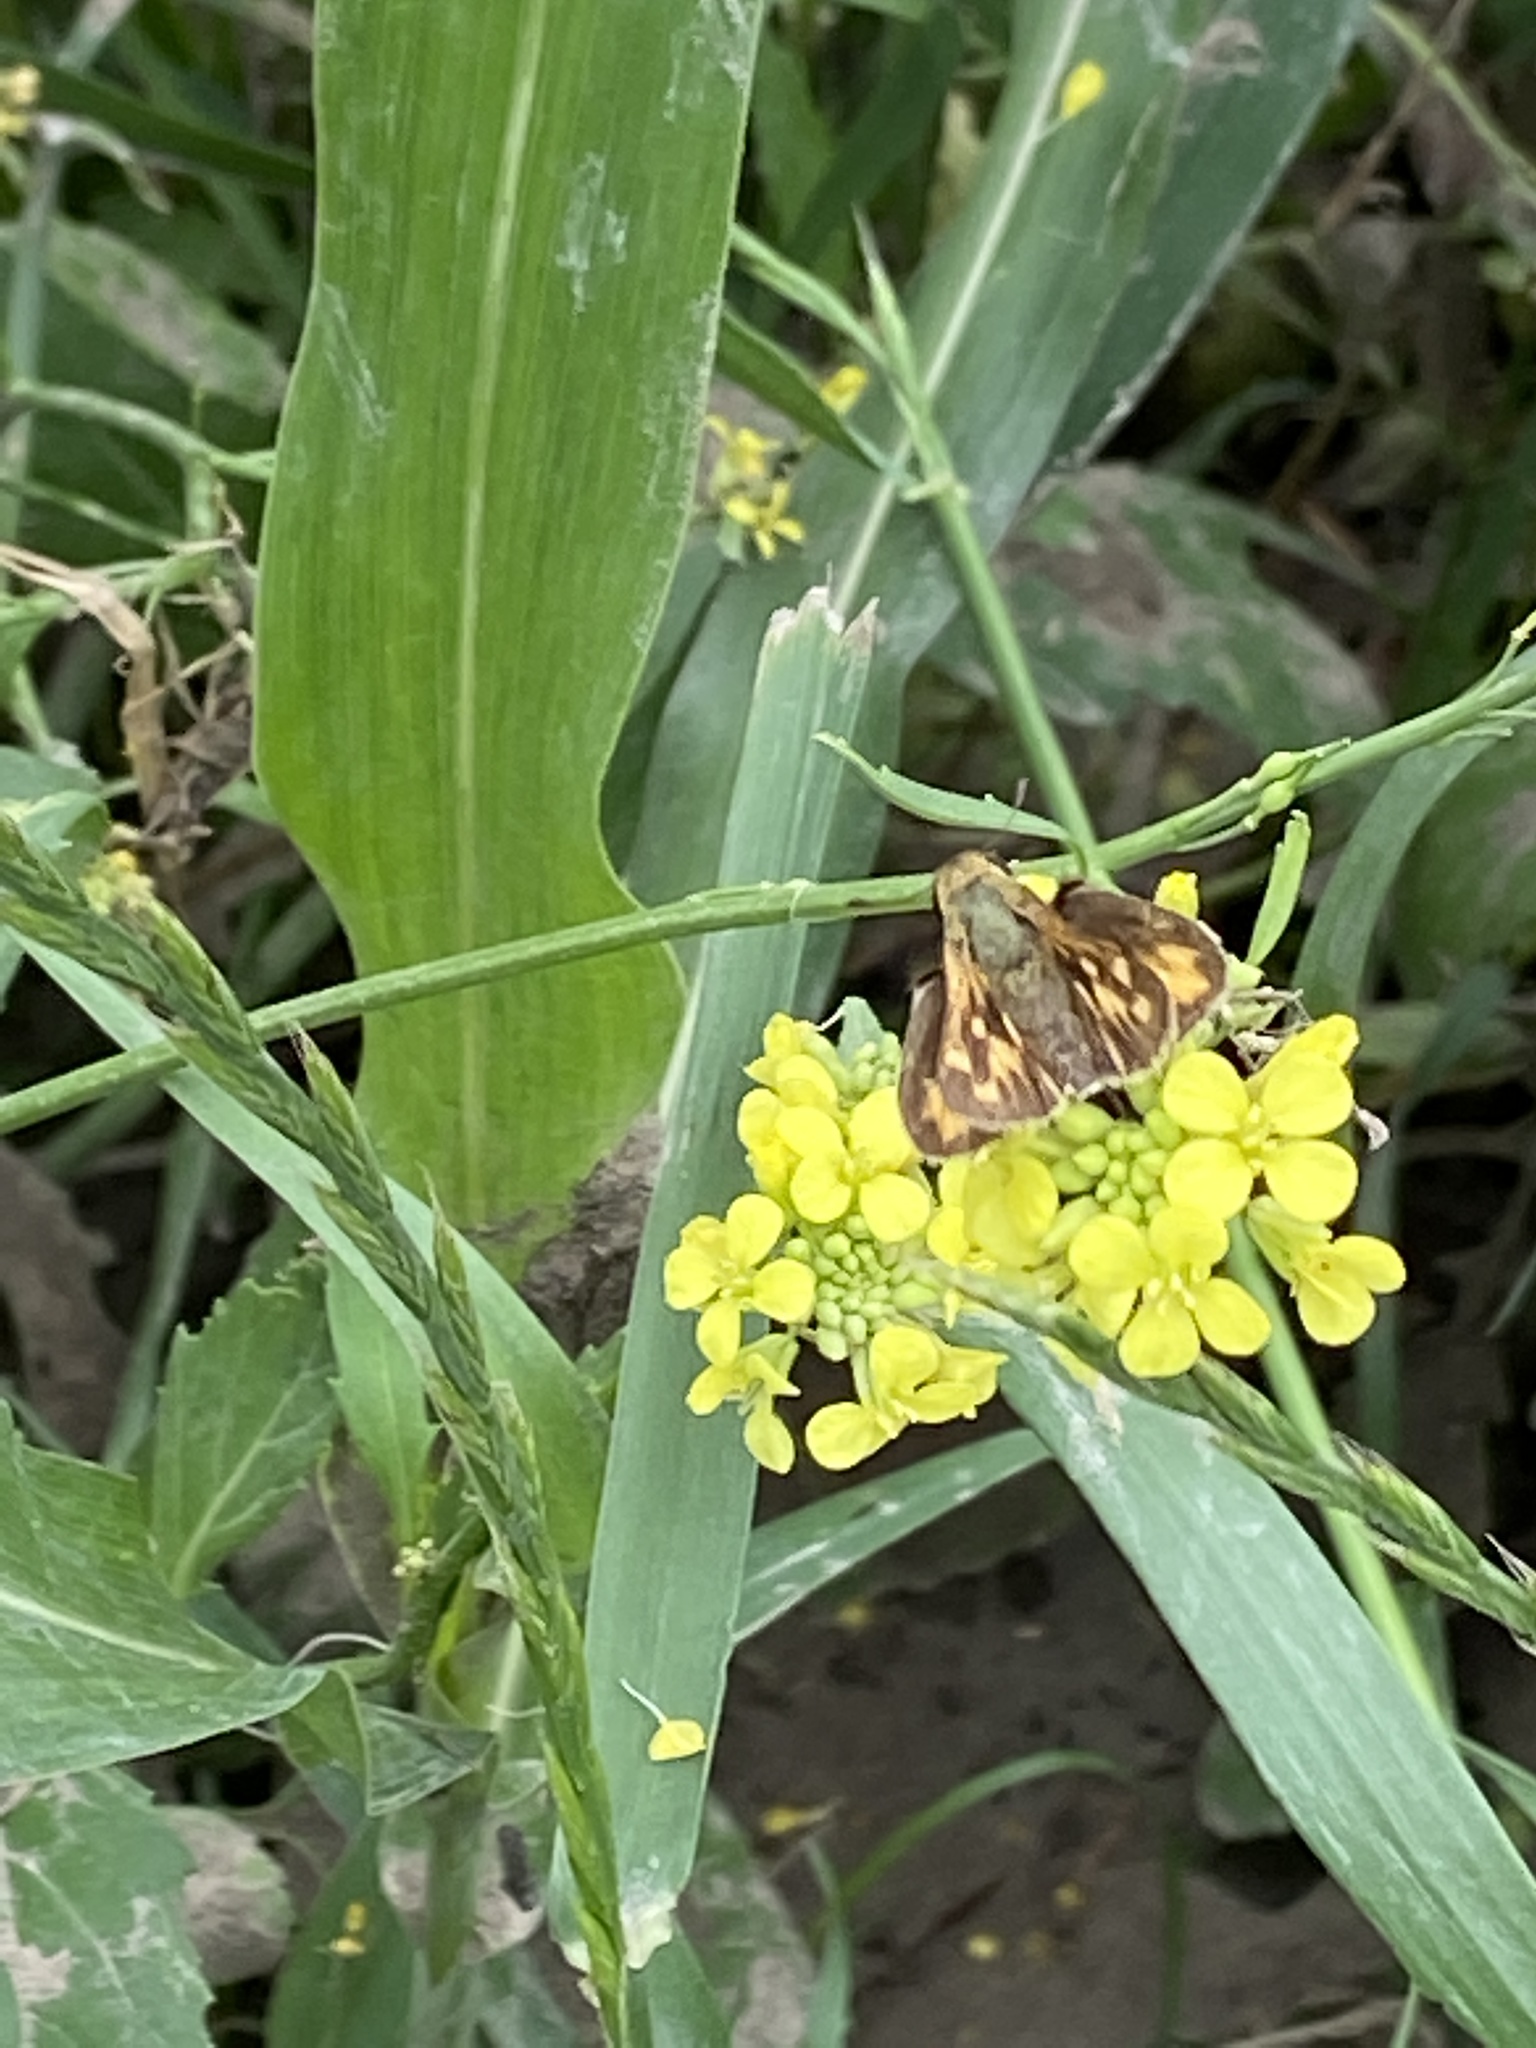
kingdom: Animalia
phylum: Arthropoda
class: Insecta
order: Lepidoptera
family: Hesperiidae
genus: Hylephila
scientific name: Hylephila phyleus
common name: Fiery skipper
